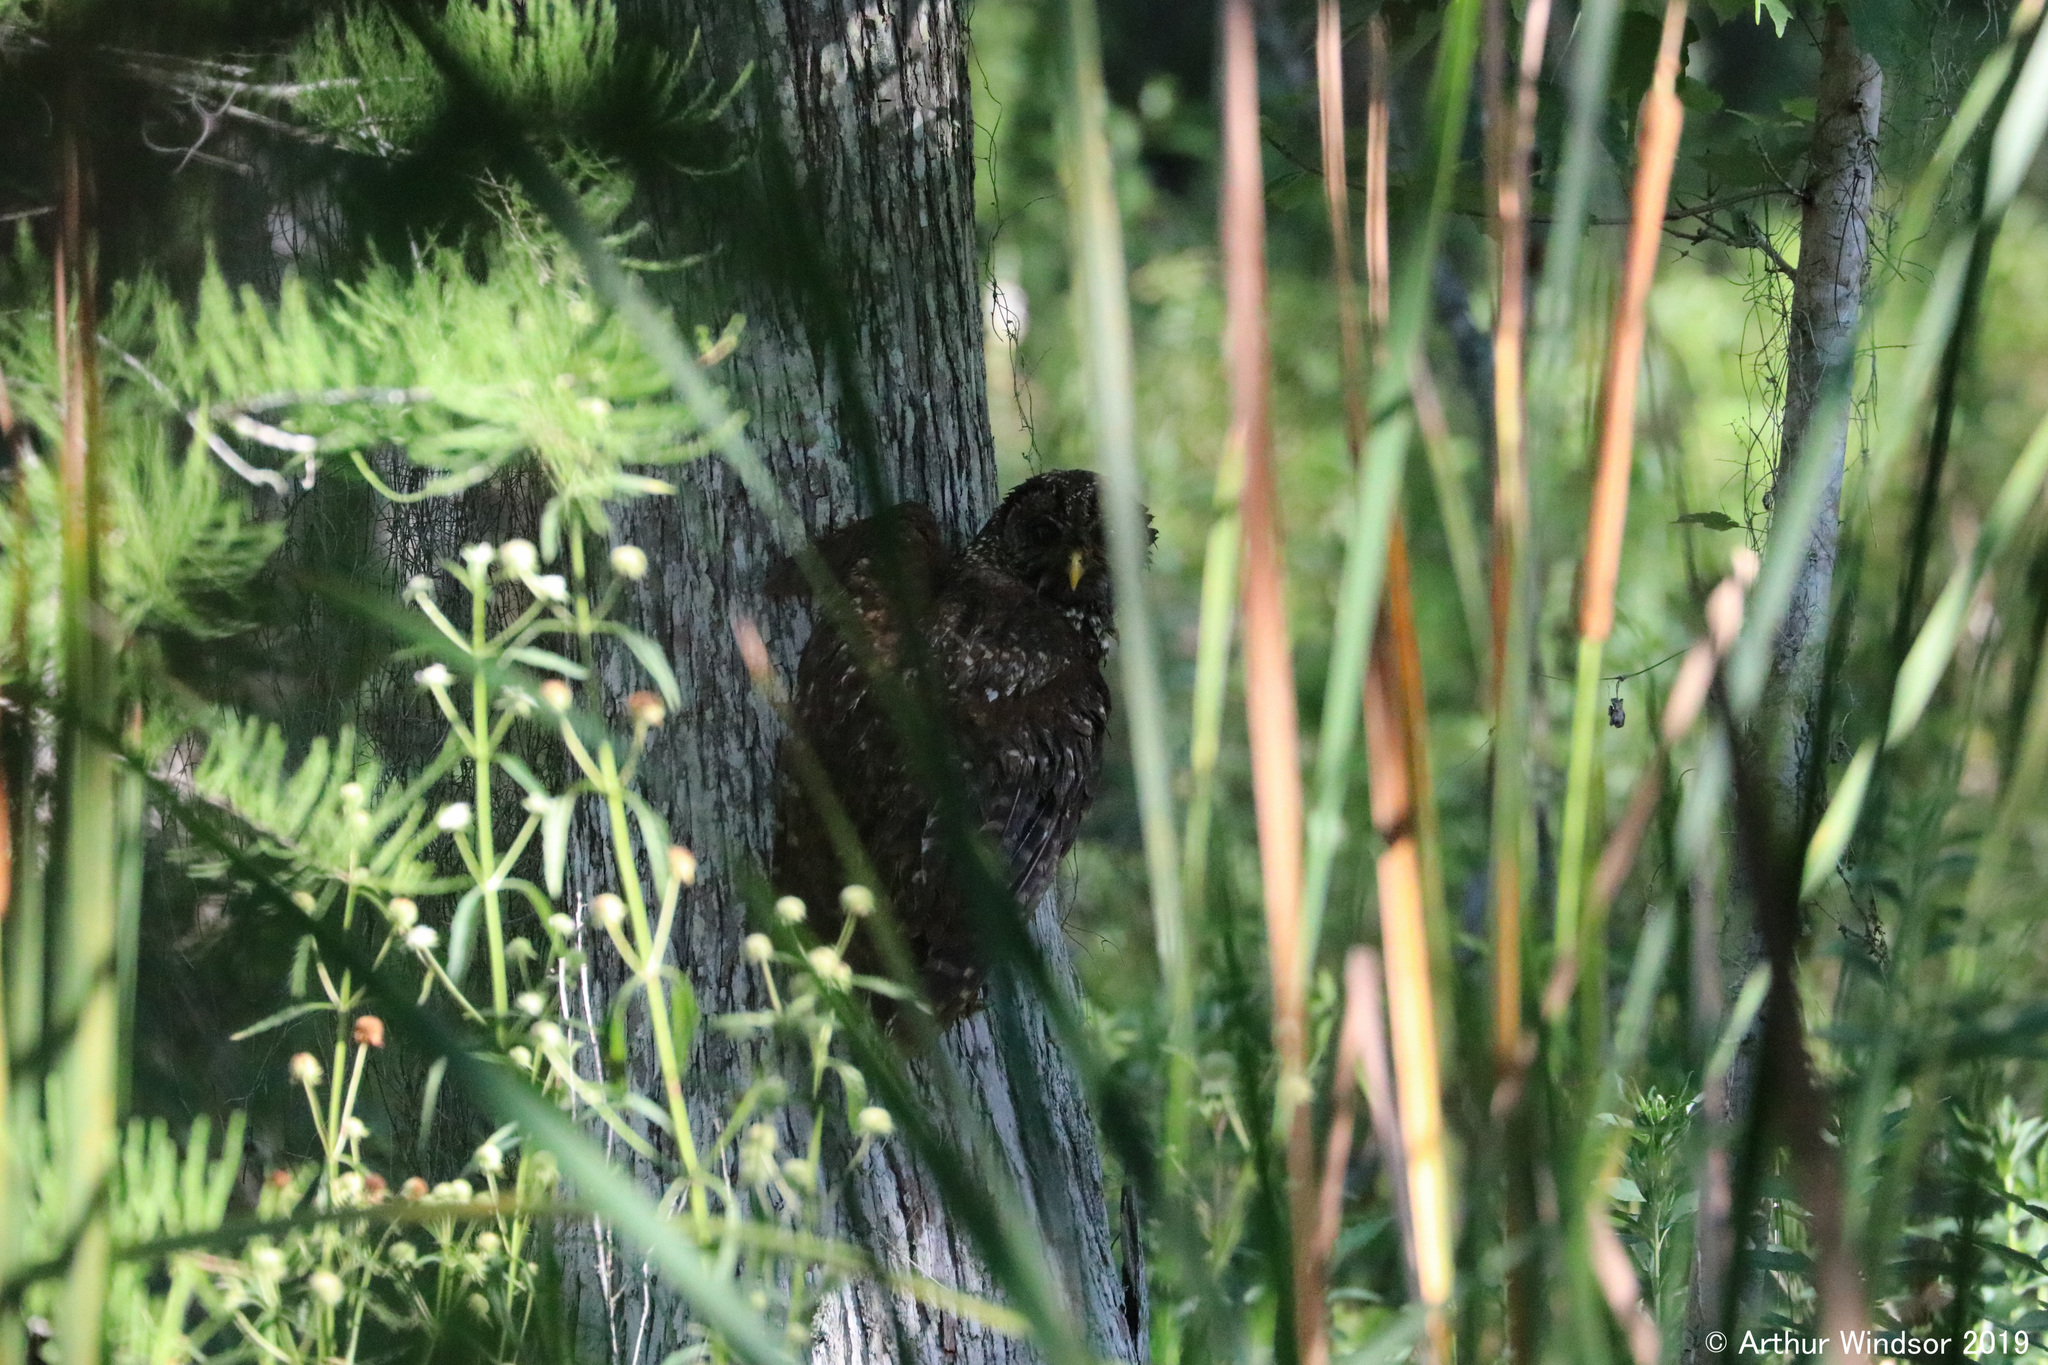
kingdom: Animalia
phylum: Chordata
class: Aves
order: Strigiformes
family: Strigidae
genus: Strix
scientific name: Strix varia
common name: Barred owl
